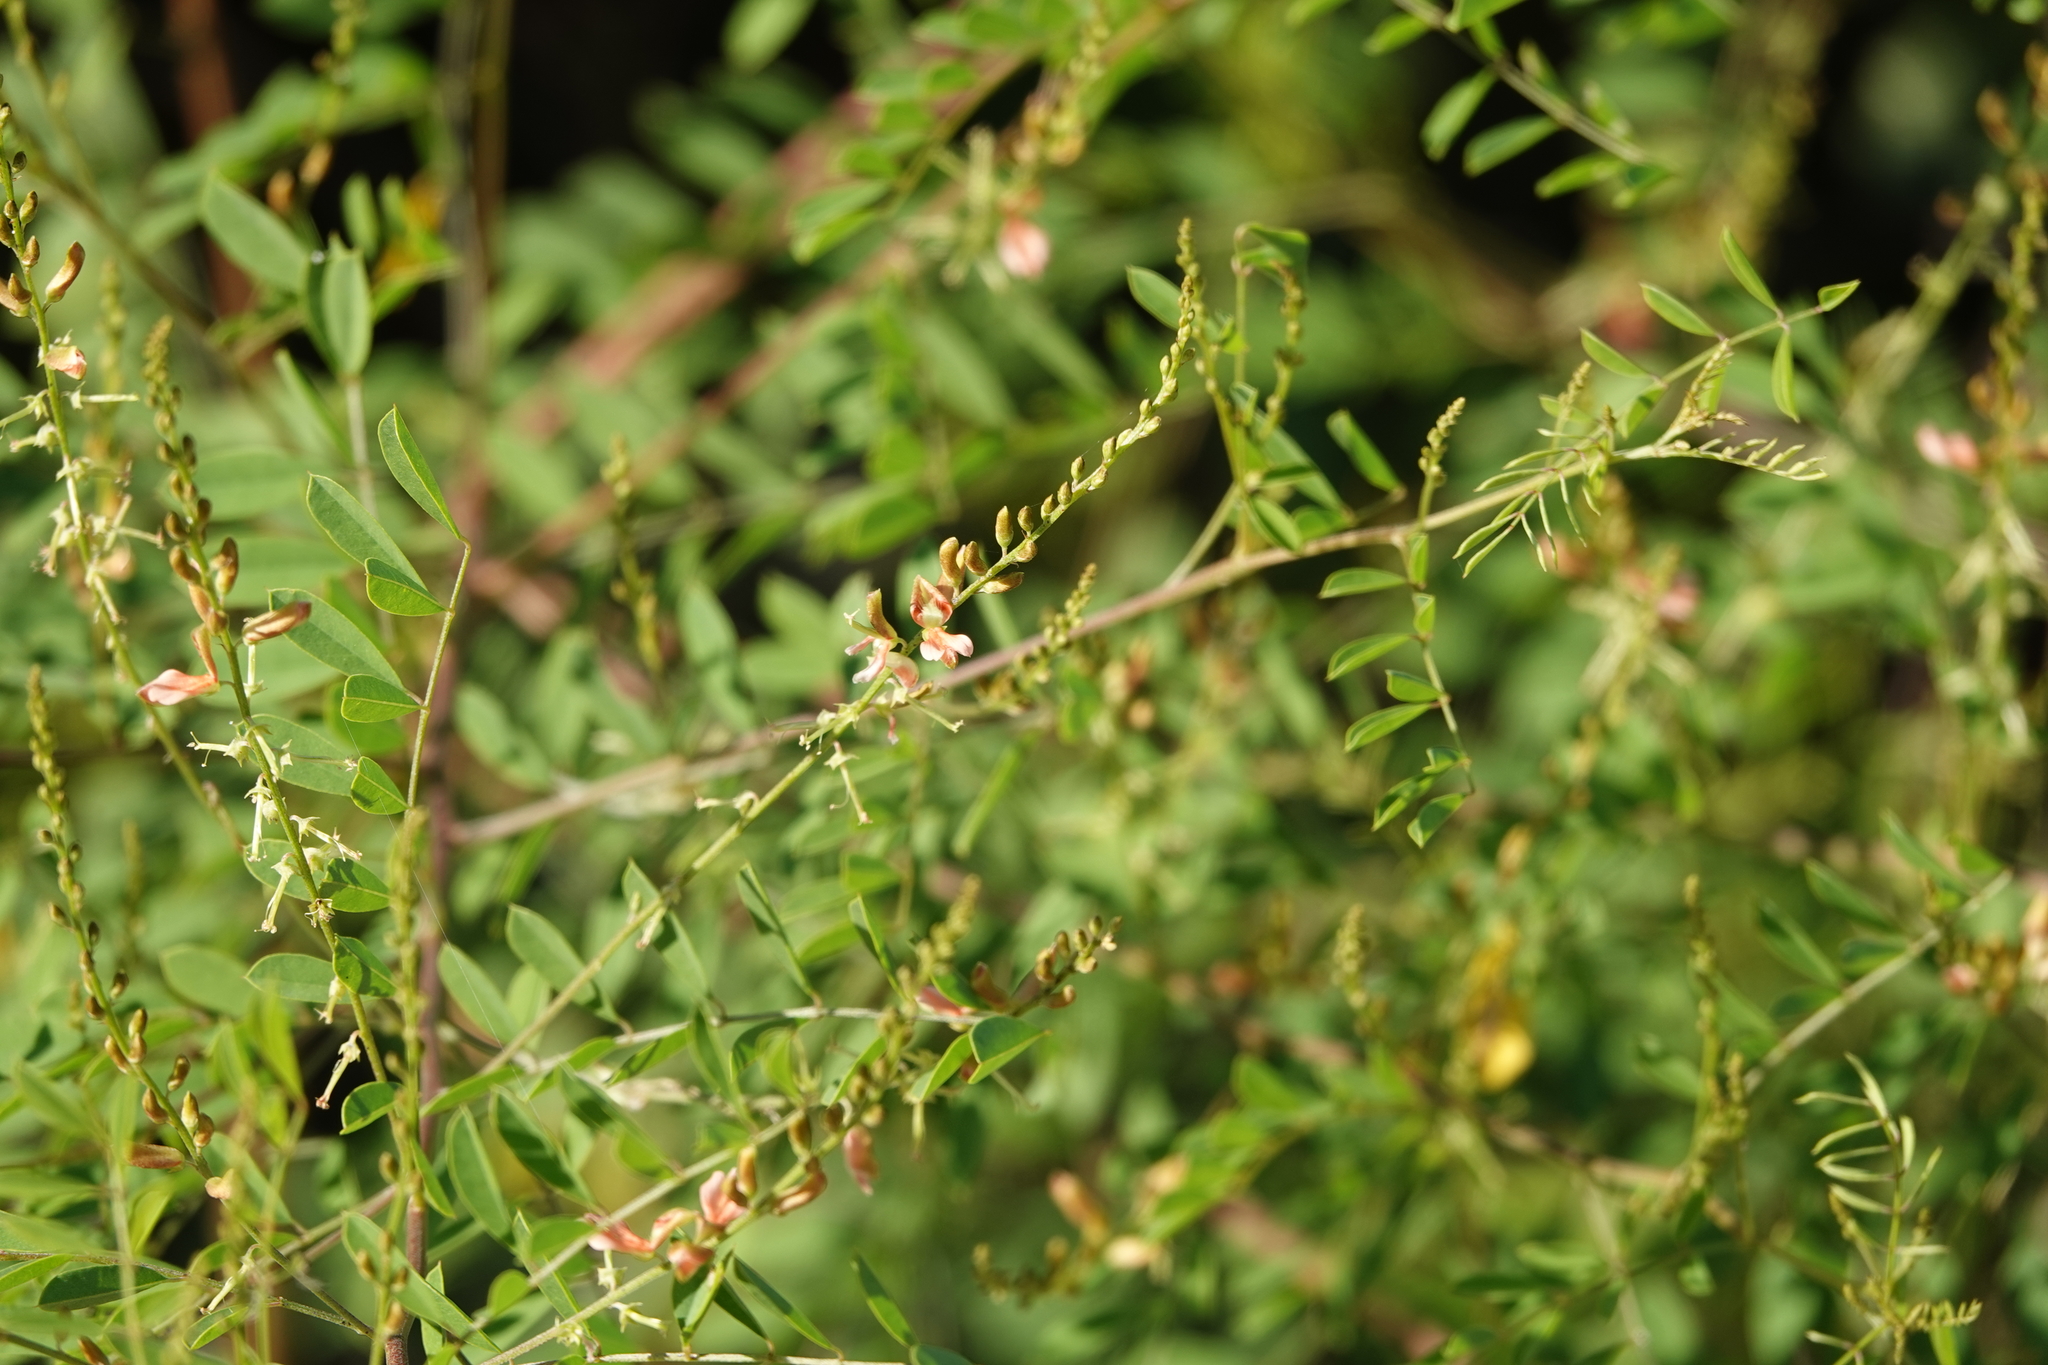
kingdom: Plantae
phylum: Tracheophyta
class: Magnoliopsida
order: Fabales
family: Fabaceae
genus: Indigofera
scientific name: Indigofera caroliniana
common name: Wild indigo
